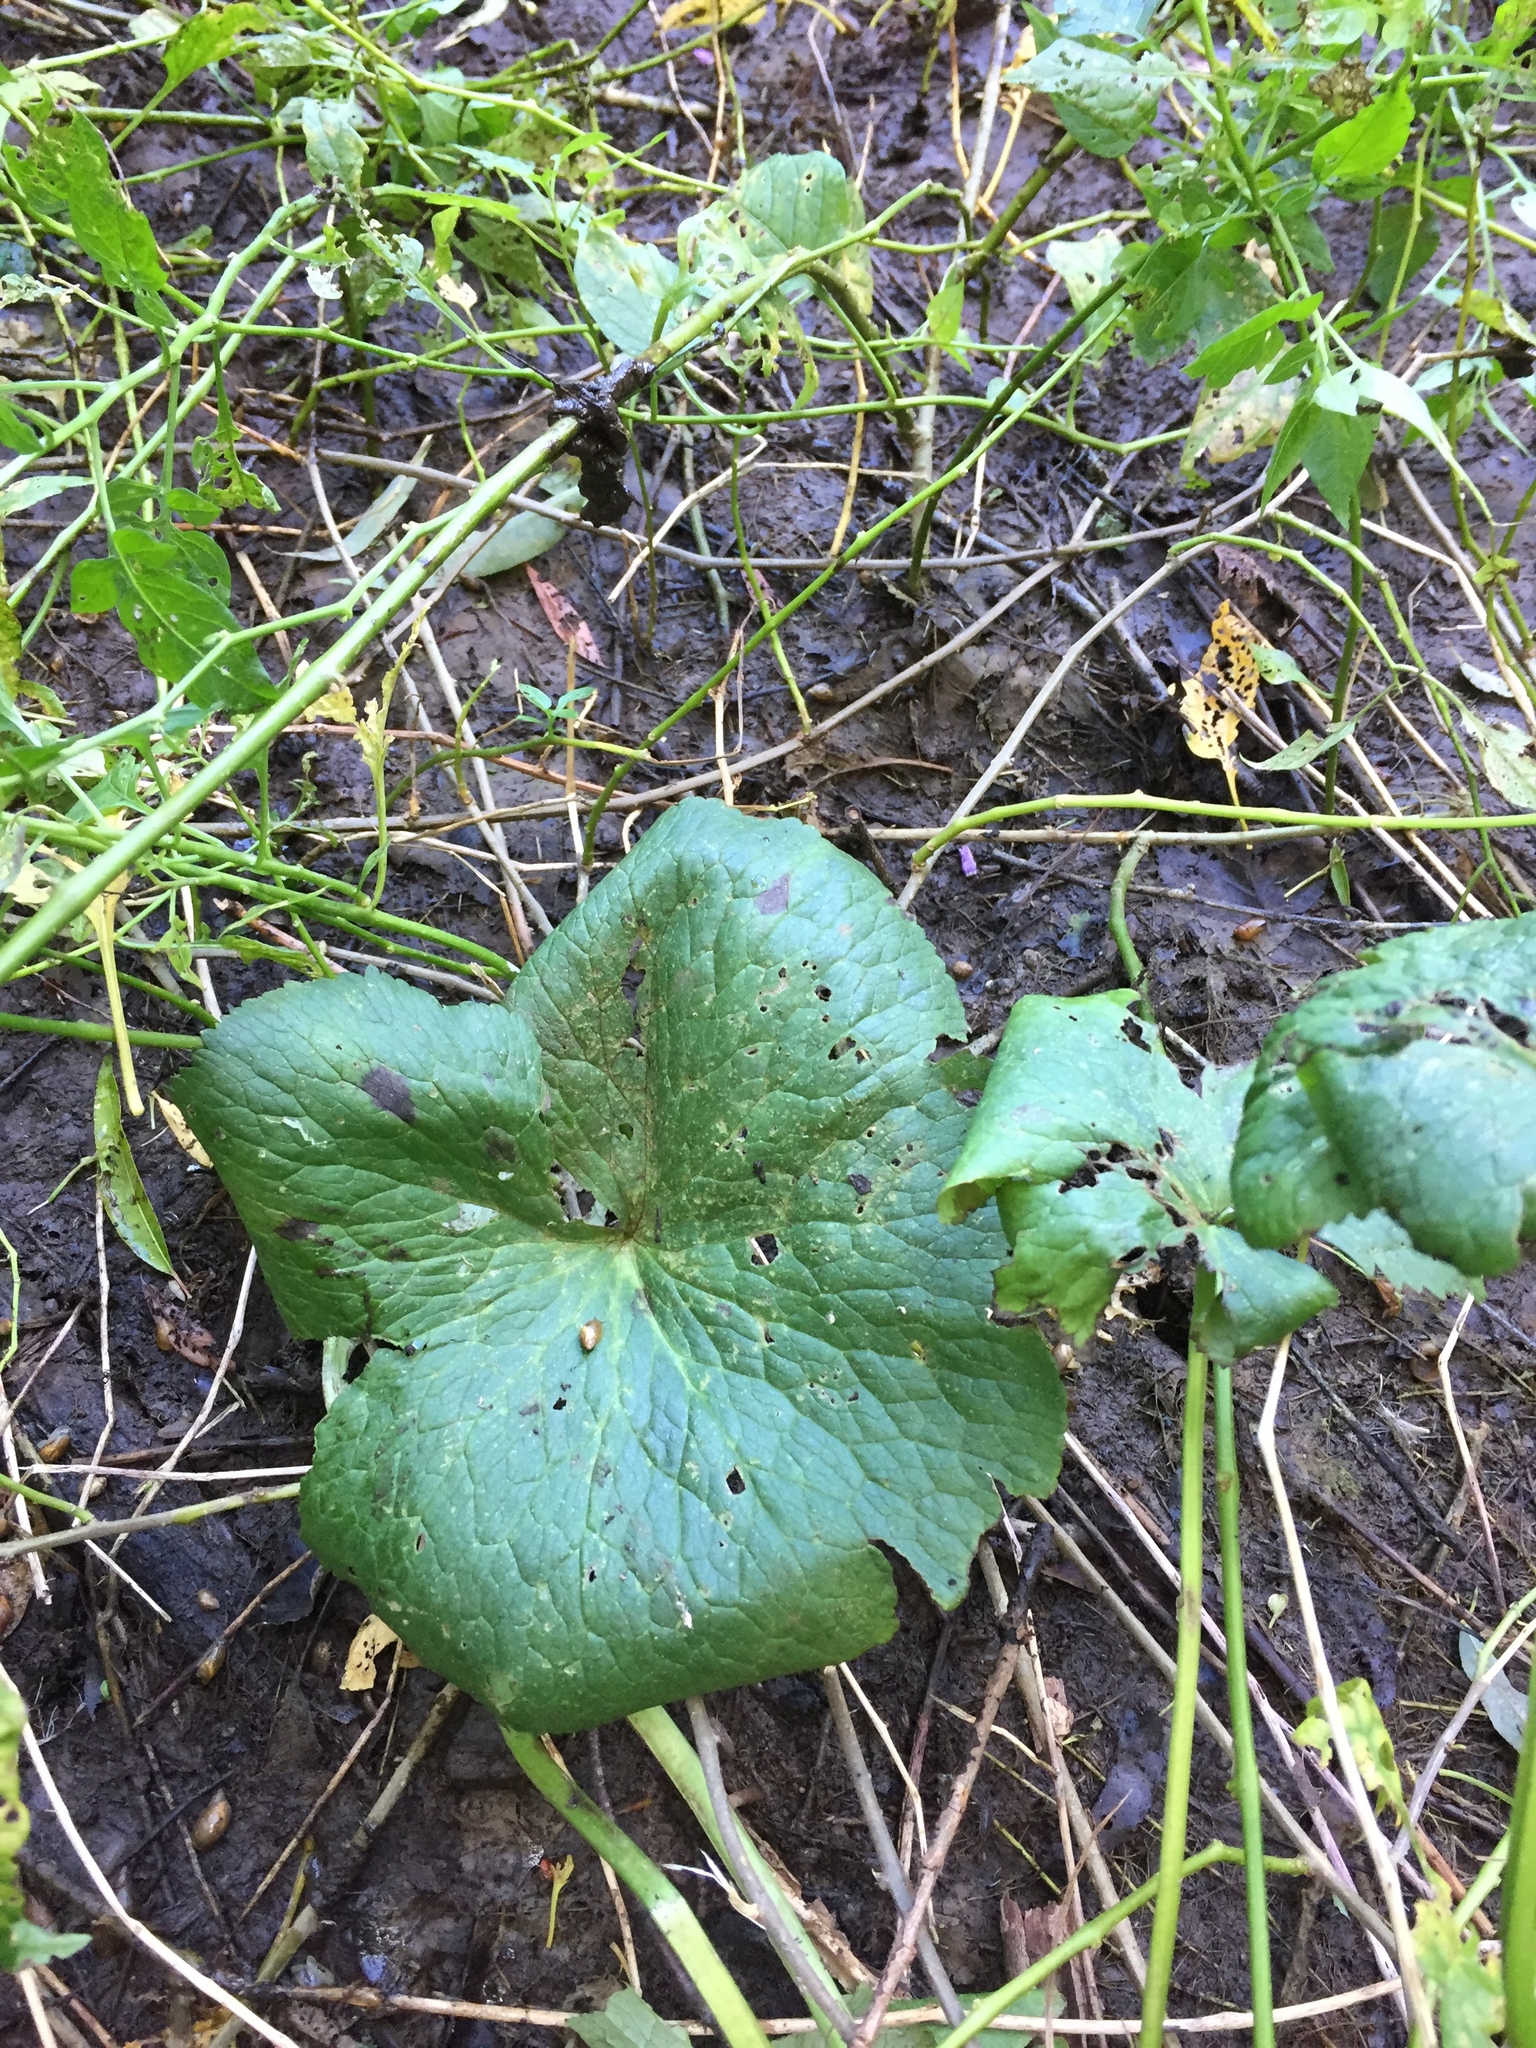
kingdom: Plantae
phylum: Tracheophyta
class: Magnoliopsida
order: Ranunculales
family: Ranunculaceae
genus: Caltha
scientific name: Caltha palustris
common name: Marsh marigold
